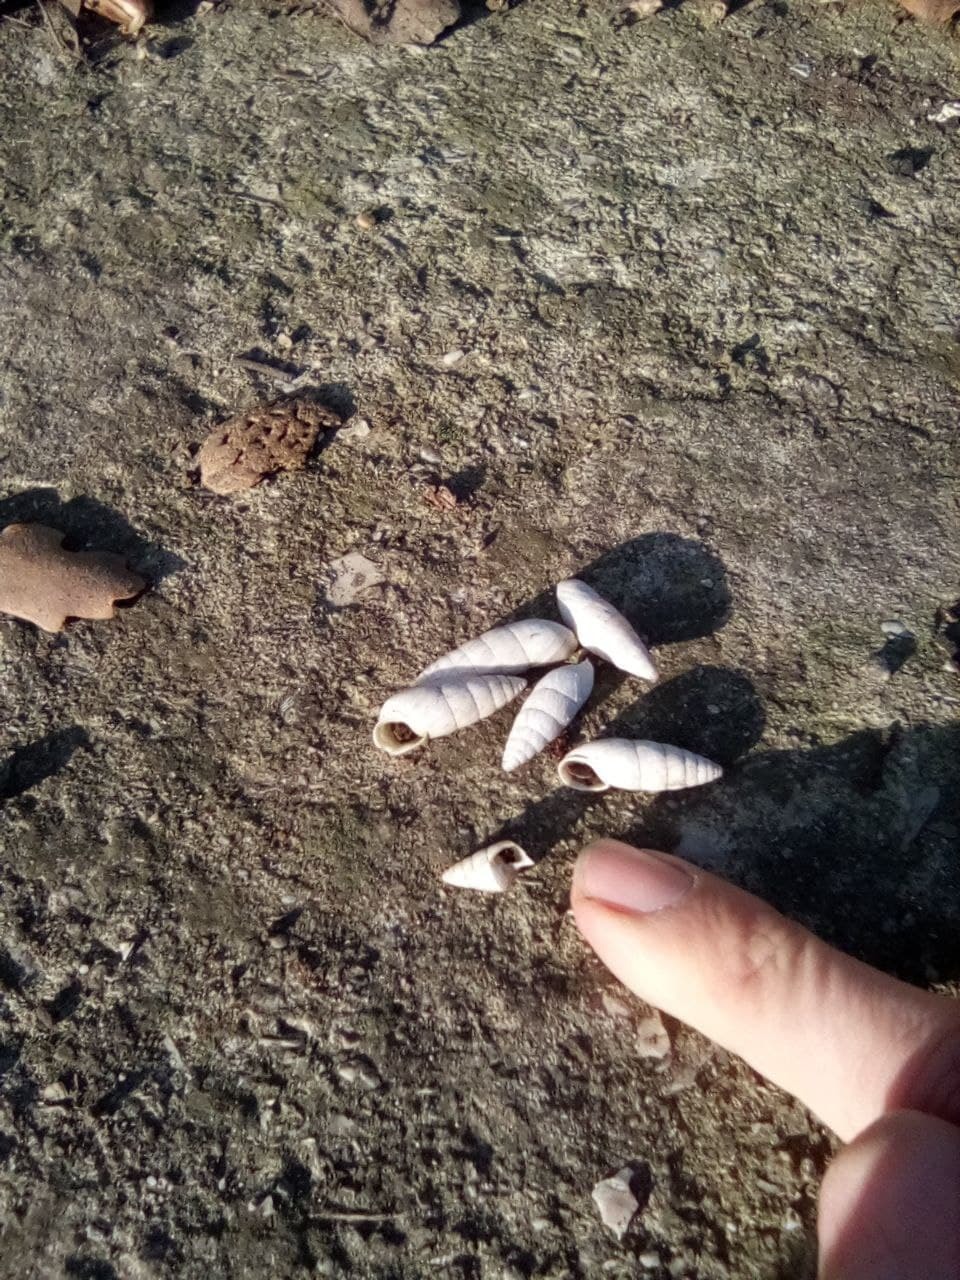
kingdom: Animalia
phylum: Mollusca
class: Gastropoda
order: Stylommatophora
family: Enidae
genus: Brephulopsis
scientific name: Brephulopsis cylindrica
